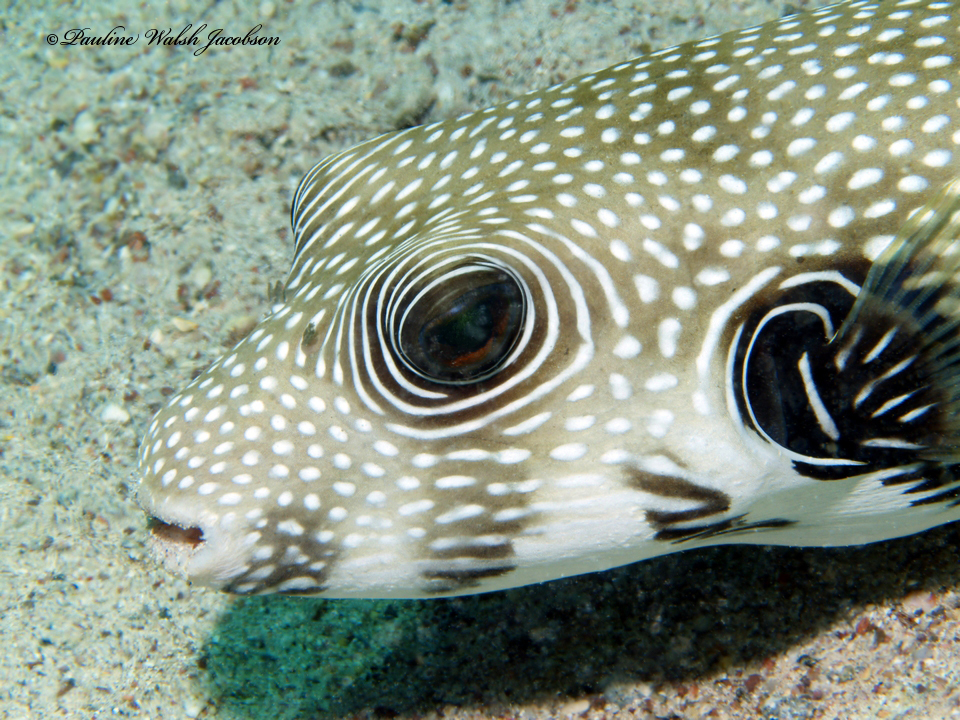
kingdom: Animalia
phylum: Chordata
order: Tetraodontiformes
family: Tetraodontidae
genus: Arothron
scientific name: Arothron hispidus
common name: Stripebelly puffer
